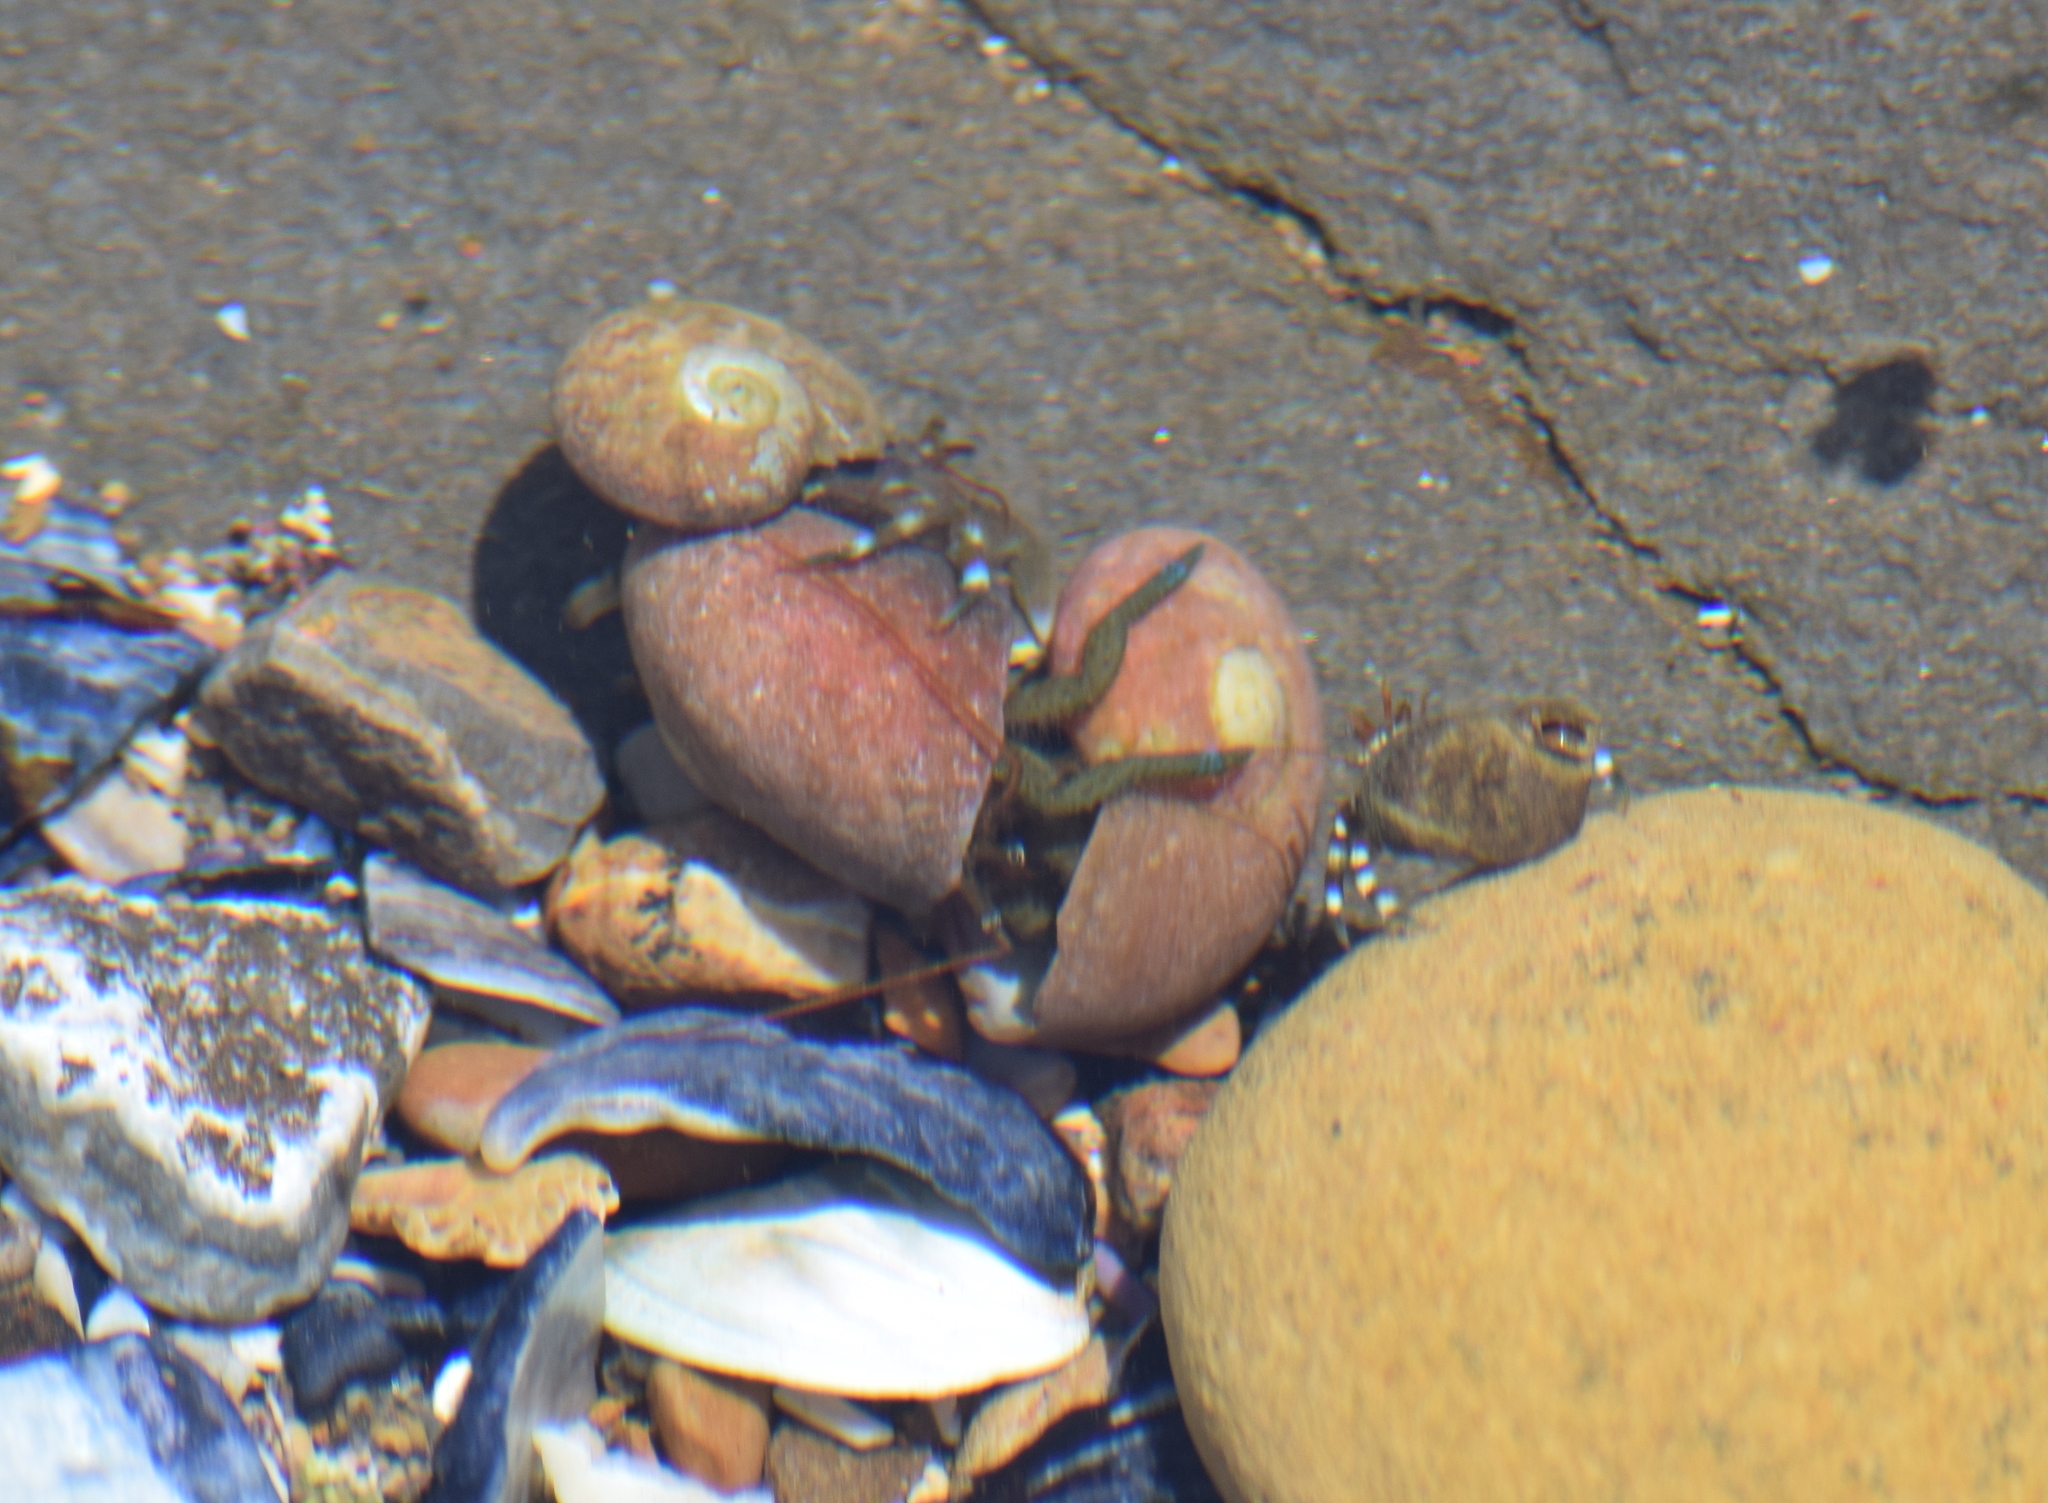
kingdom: Animalia
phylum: Arthropoda
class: Malacostraca
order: Decapoda
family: Paguridae
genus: Pagurus
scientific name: Pagurus samuelis
